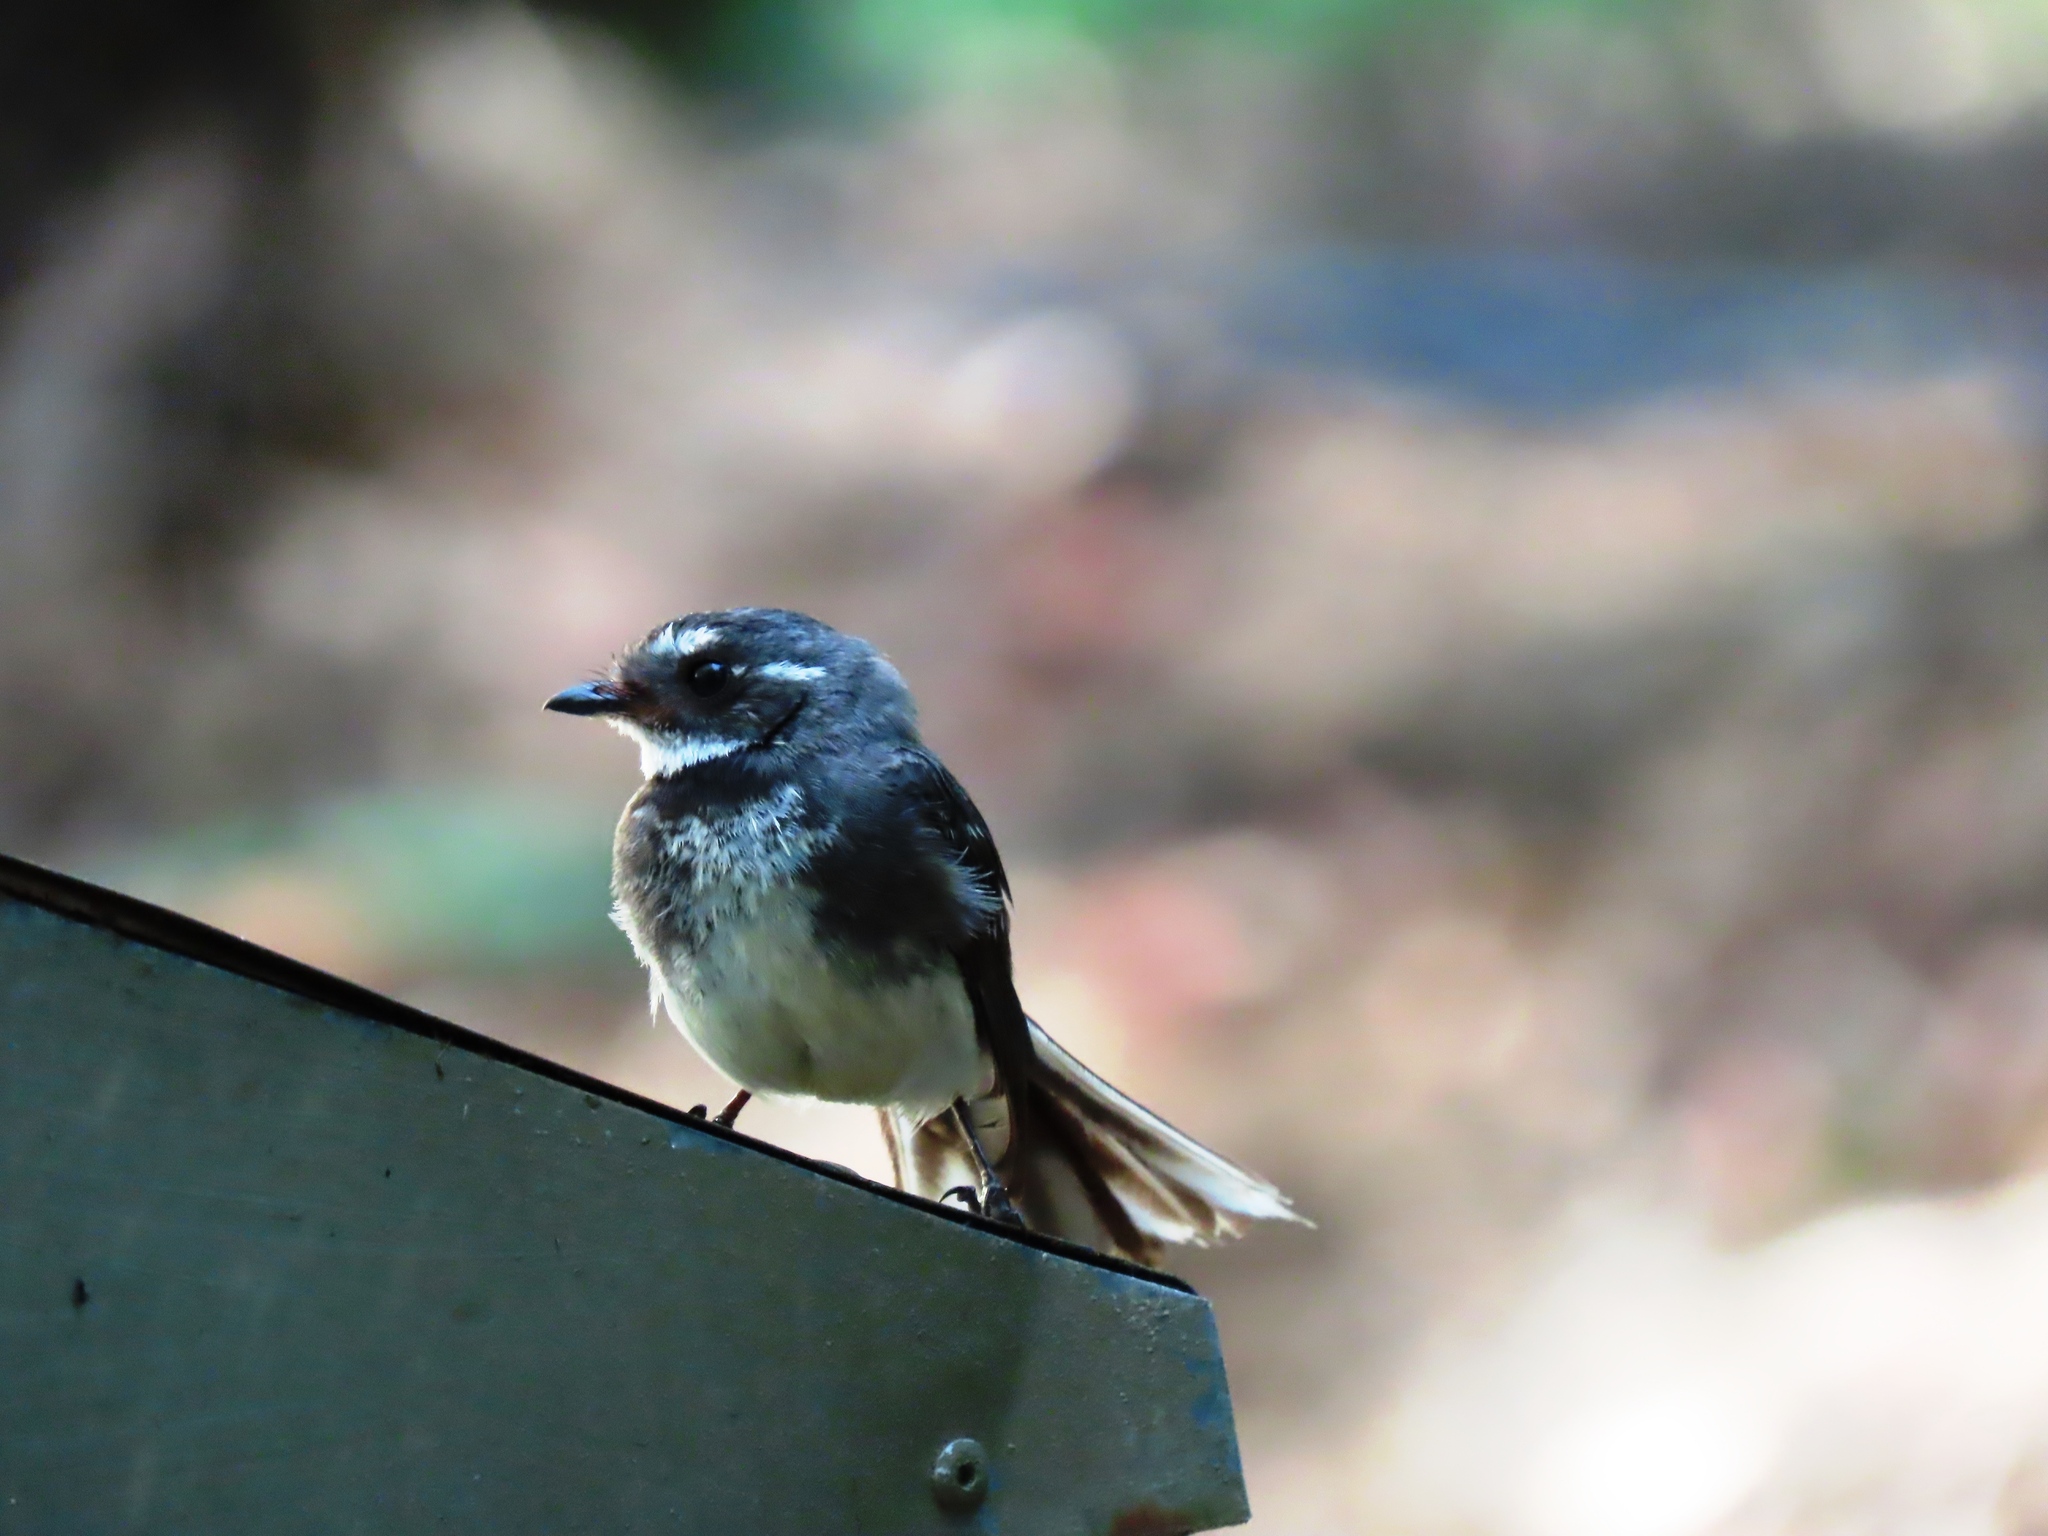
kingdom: Animalia
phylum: Chordata
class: Aves
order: Passeriformes
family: Rhipiduridae
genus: Rhipidura
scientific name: Rhipidura albiscapa
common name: Grey fantail
